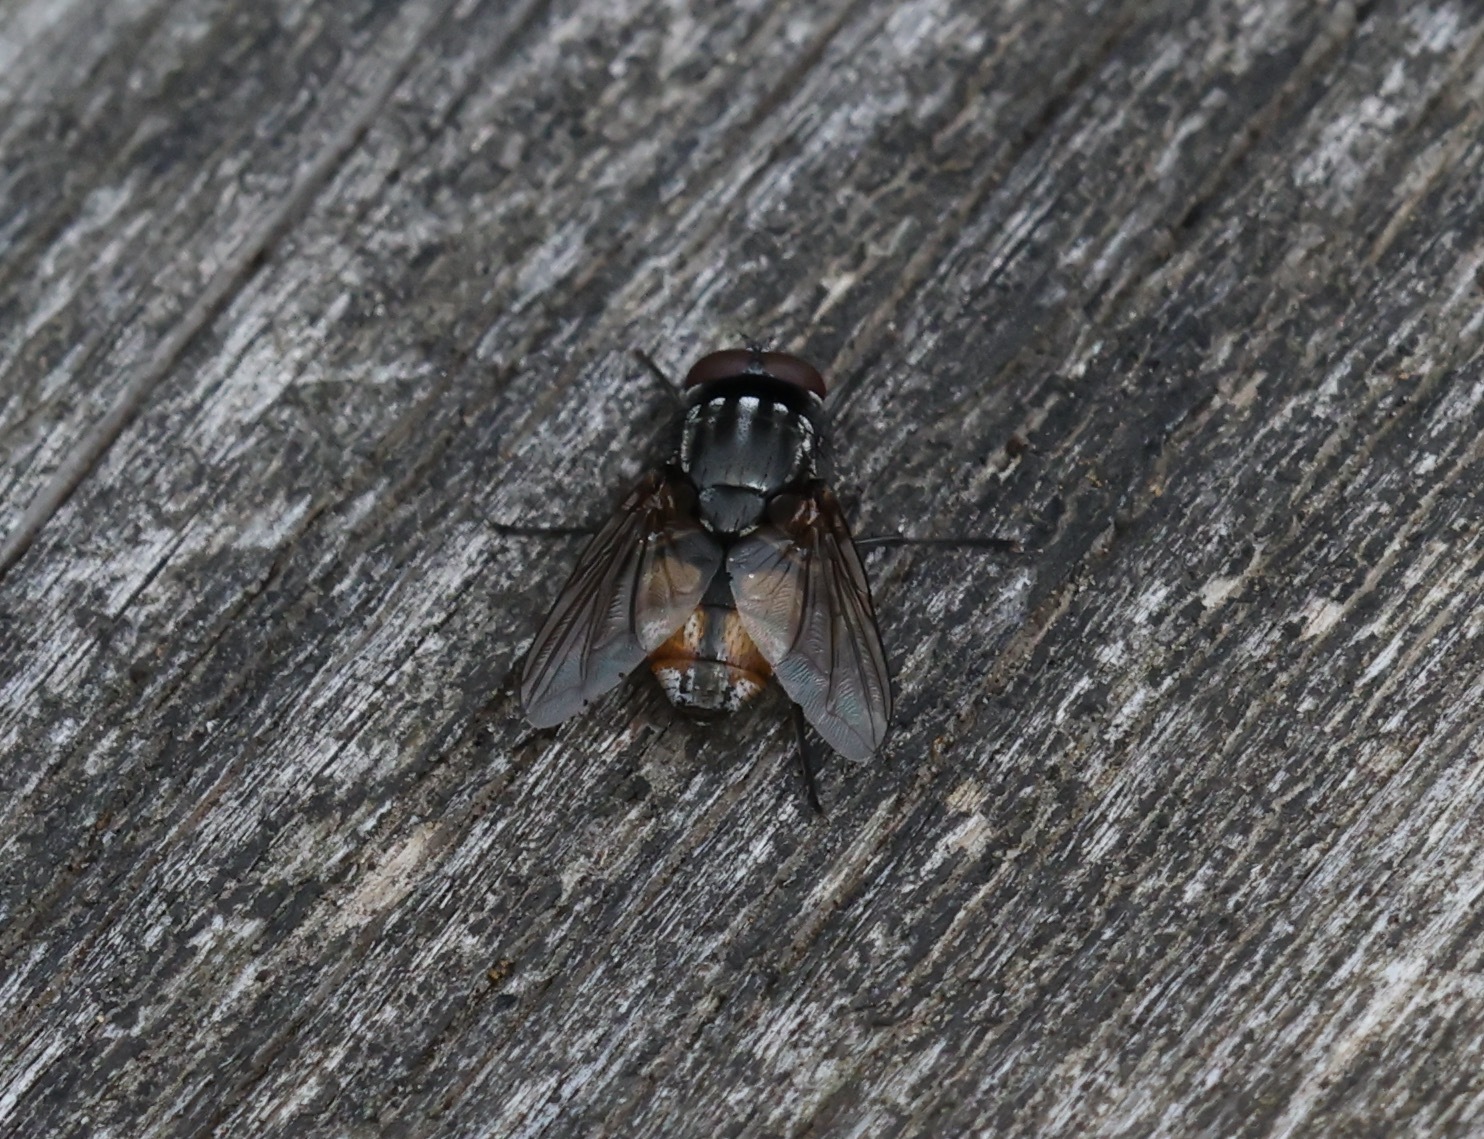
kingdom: Animalia
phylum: Arthropoda
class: Insecta
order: Diptera
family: Muscidae
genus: Musca
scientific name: Musca autumnalis
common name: Face fly
